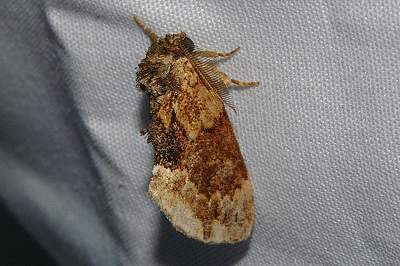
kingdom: Animalia
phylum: Arthropoda
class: Insecta
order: Lepidoptera
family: Notodontidae
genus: Lophontosia
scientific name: Lophontosia
